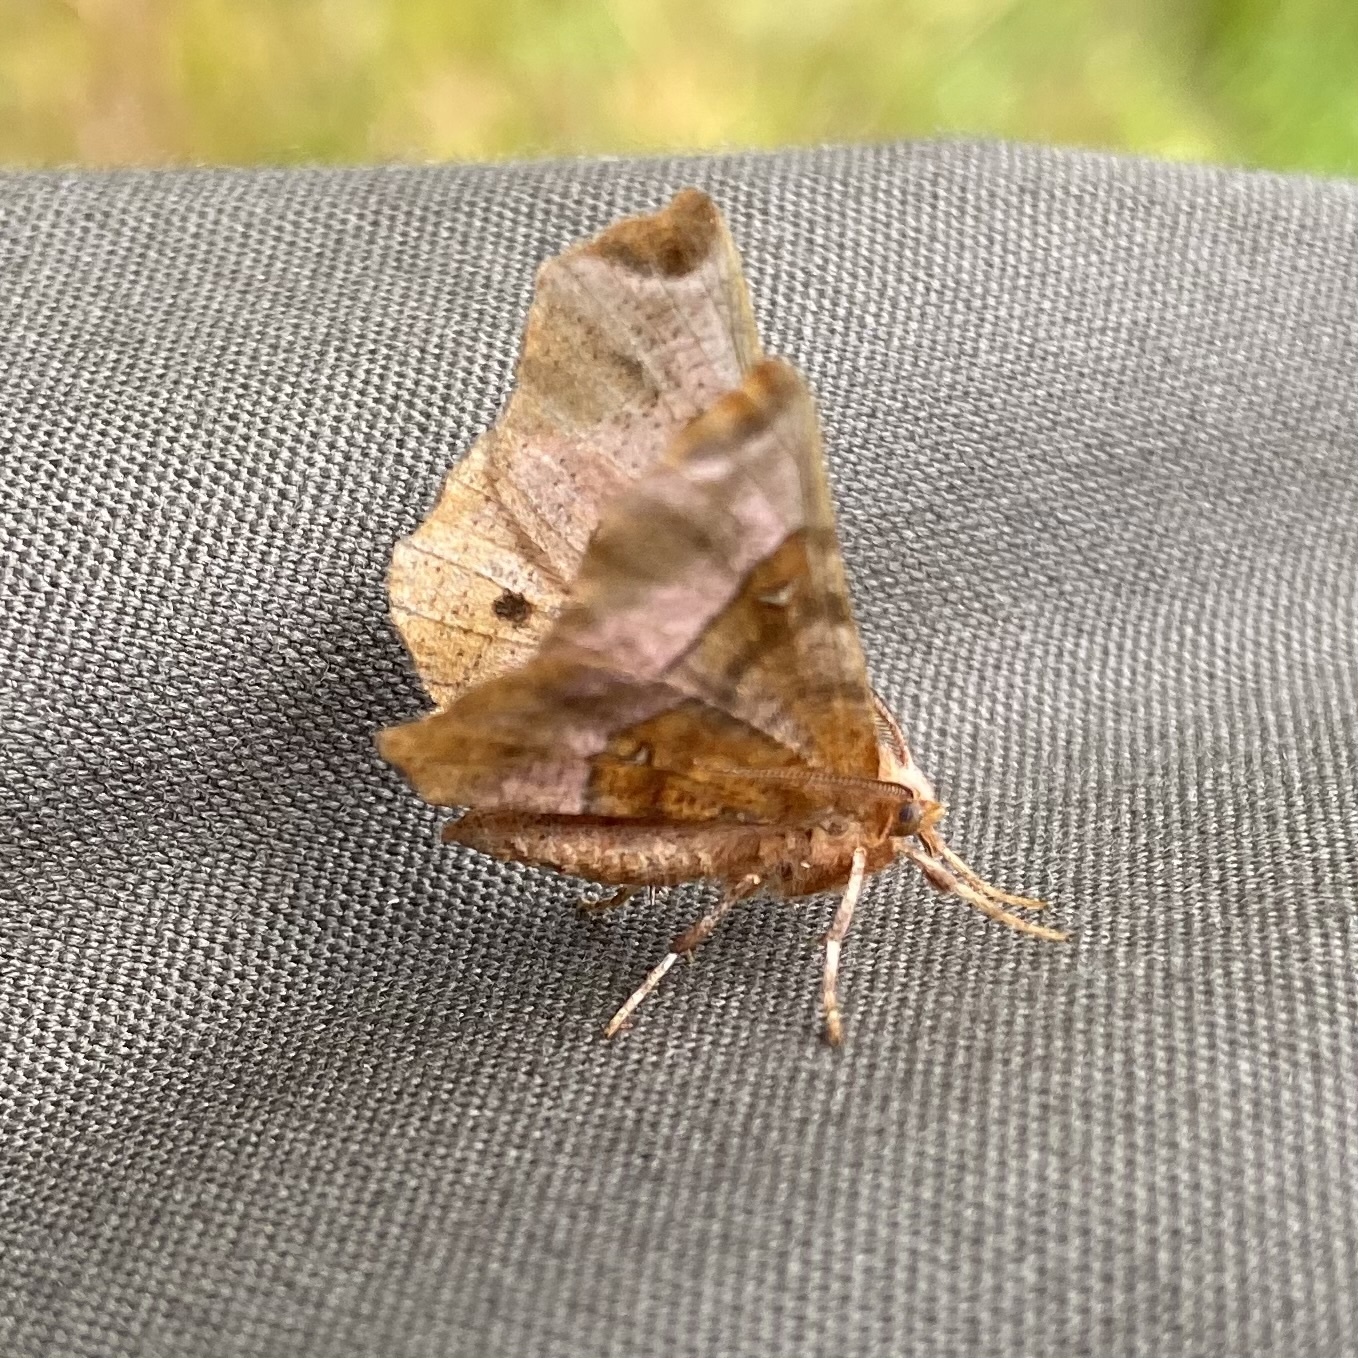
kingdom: Animalia
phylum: Arthropoda
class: Insecta
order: Lepidoptera
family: Geometridae
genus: Selenia
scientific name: Selenia tetralunaria
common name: Purple thorn
